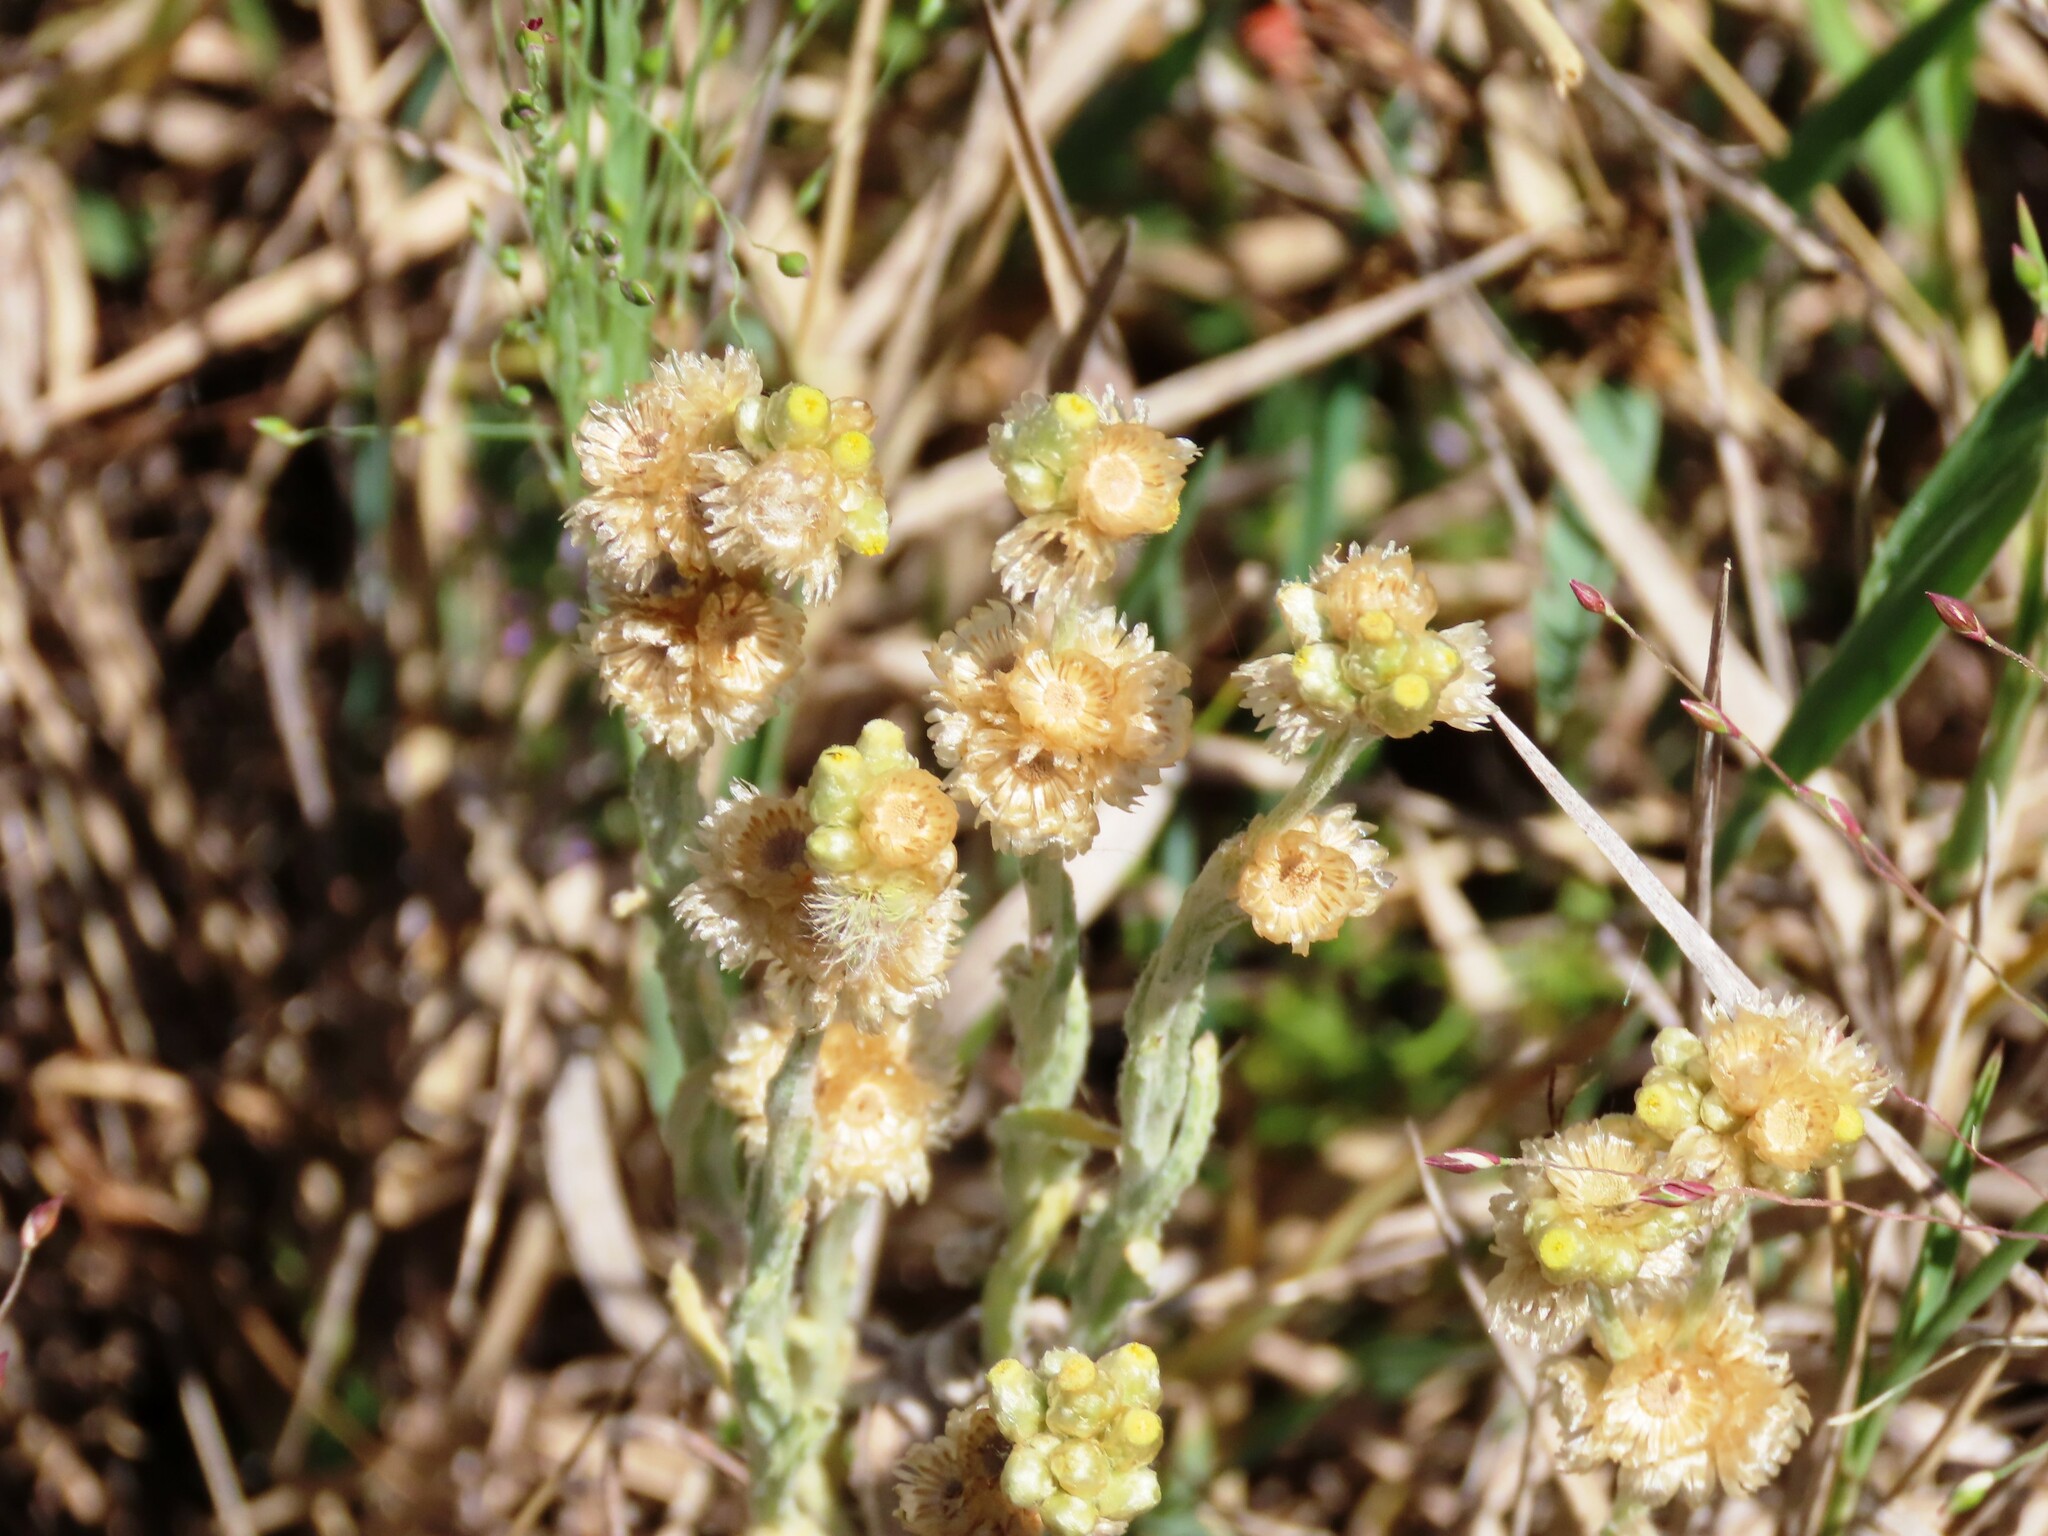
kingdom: Plantae
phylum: Tracheophyta
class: Magnoliopsida
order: Asterales
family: Asteraceae
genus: Helichrysum
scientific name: Helichrysum luteoalbum
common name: Daisy
